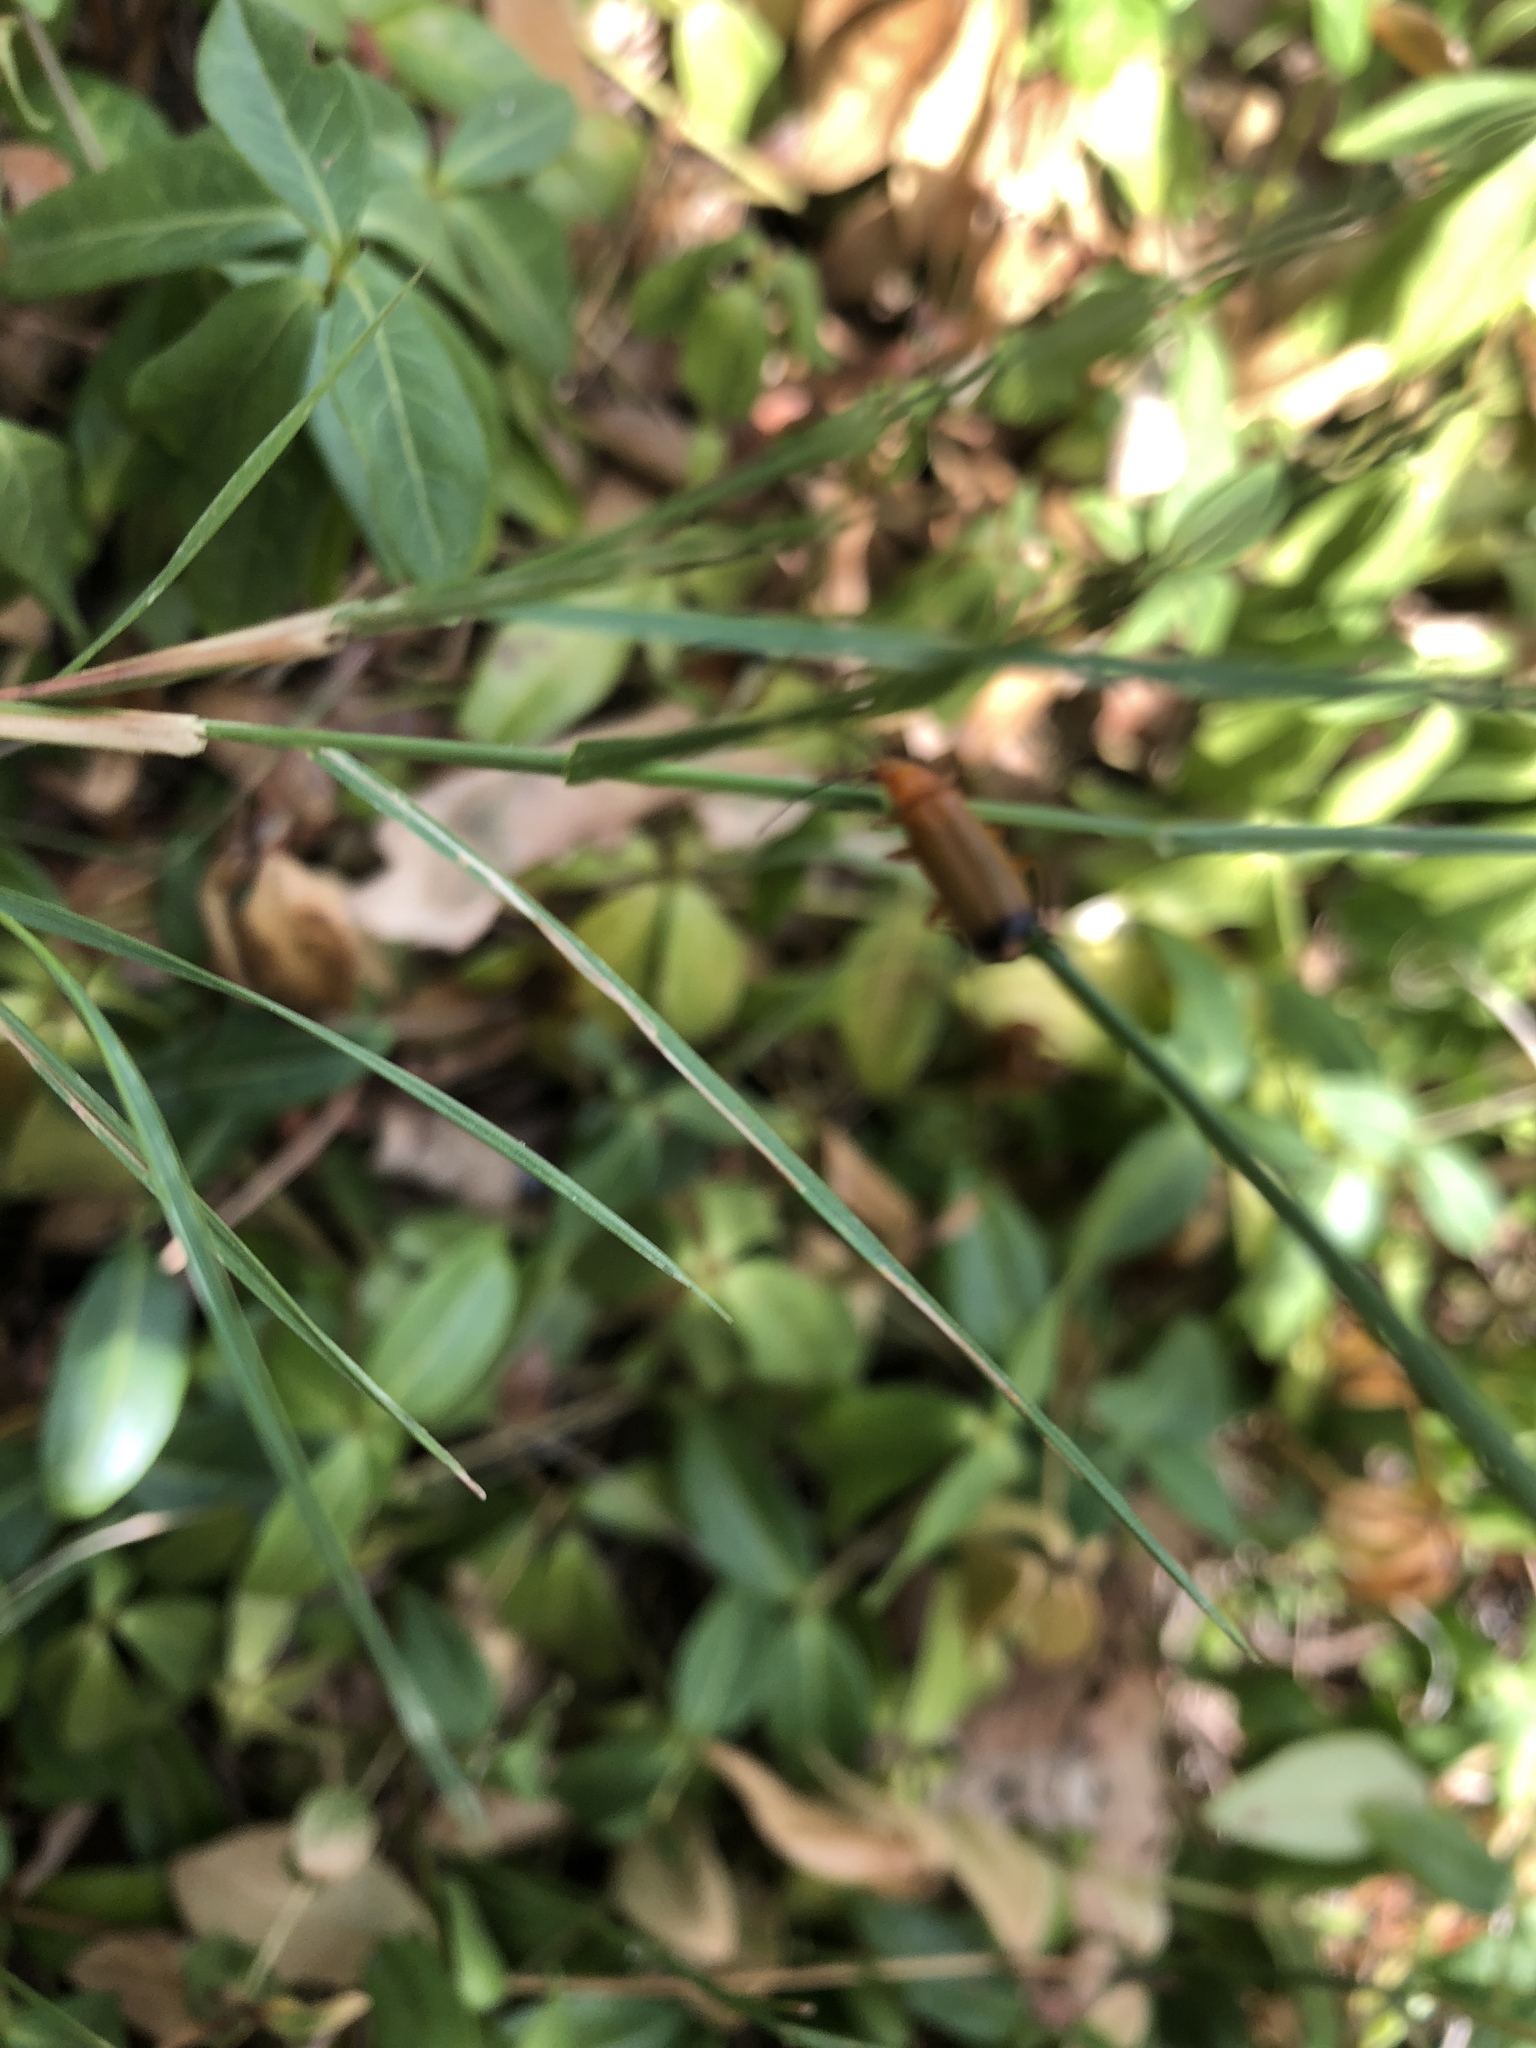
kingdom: Animalia
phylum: Arthropoda
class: Insecta
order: Coleoptera
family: Cantharidae
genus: Rhagonycha
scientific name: Rhagonycha fulva
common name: Common red soldier beetle
